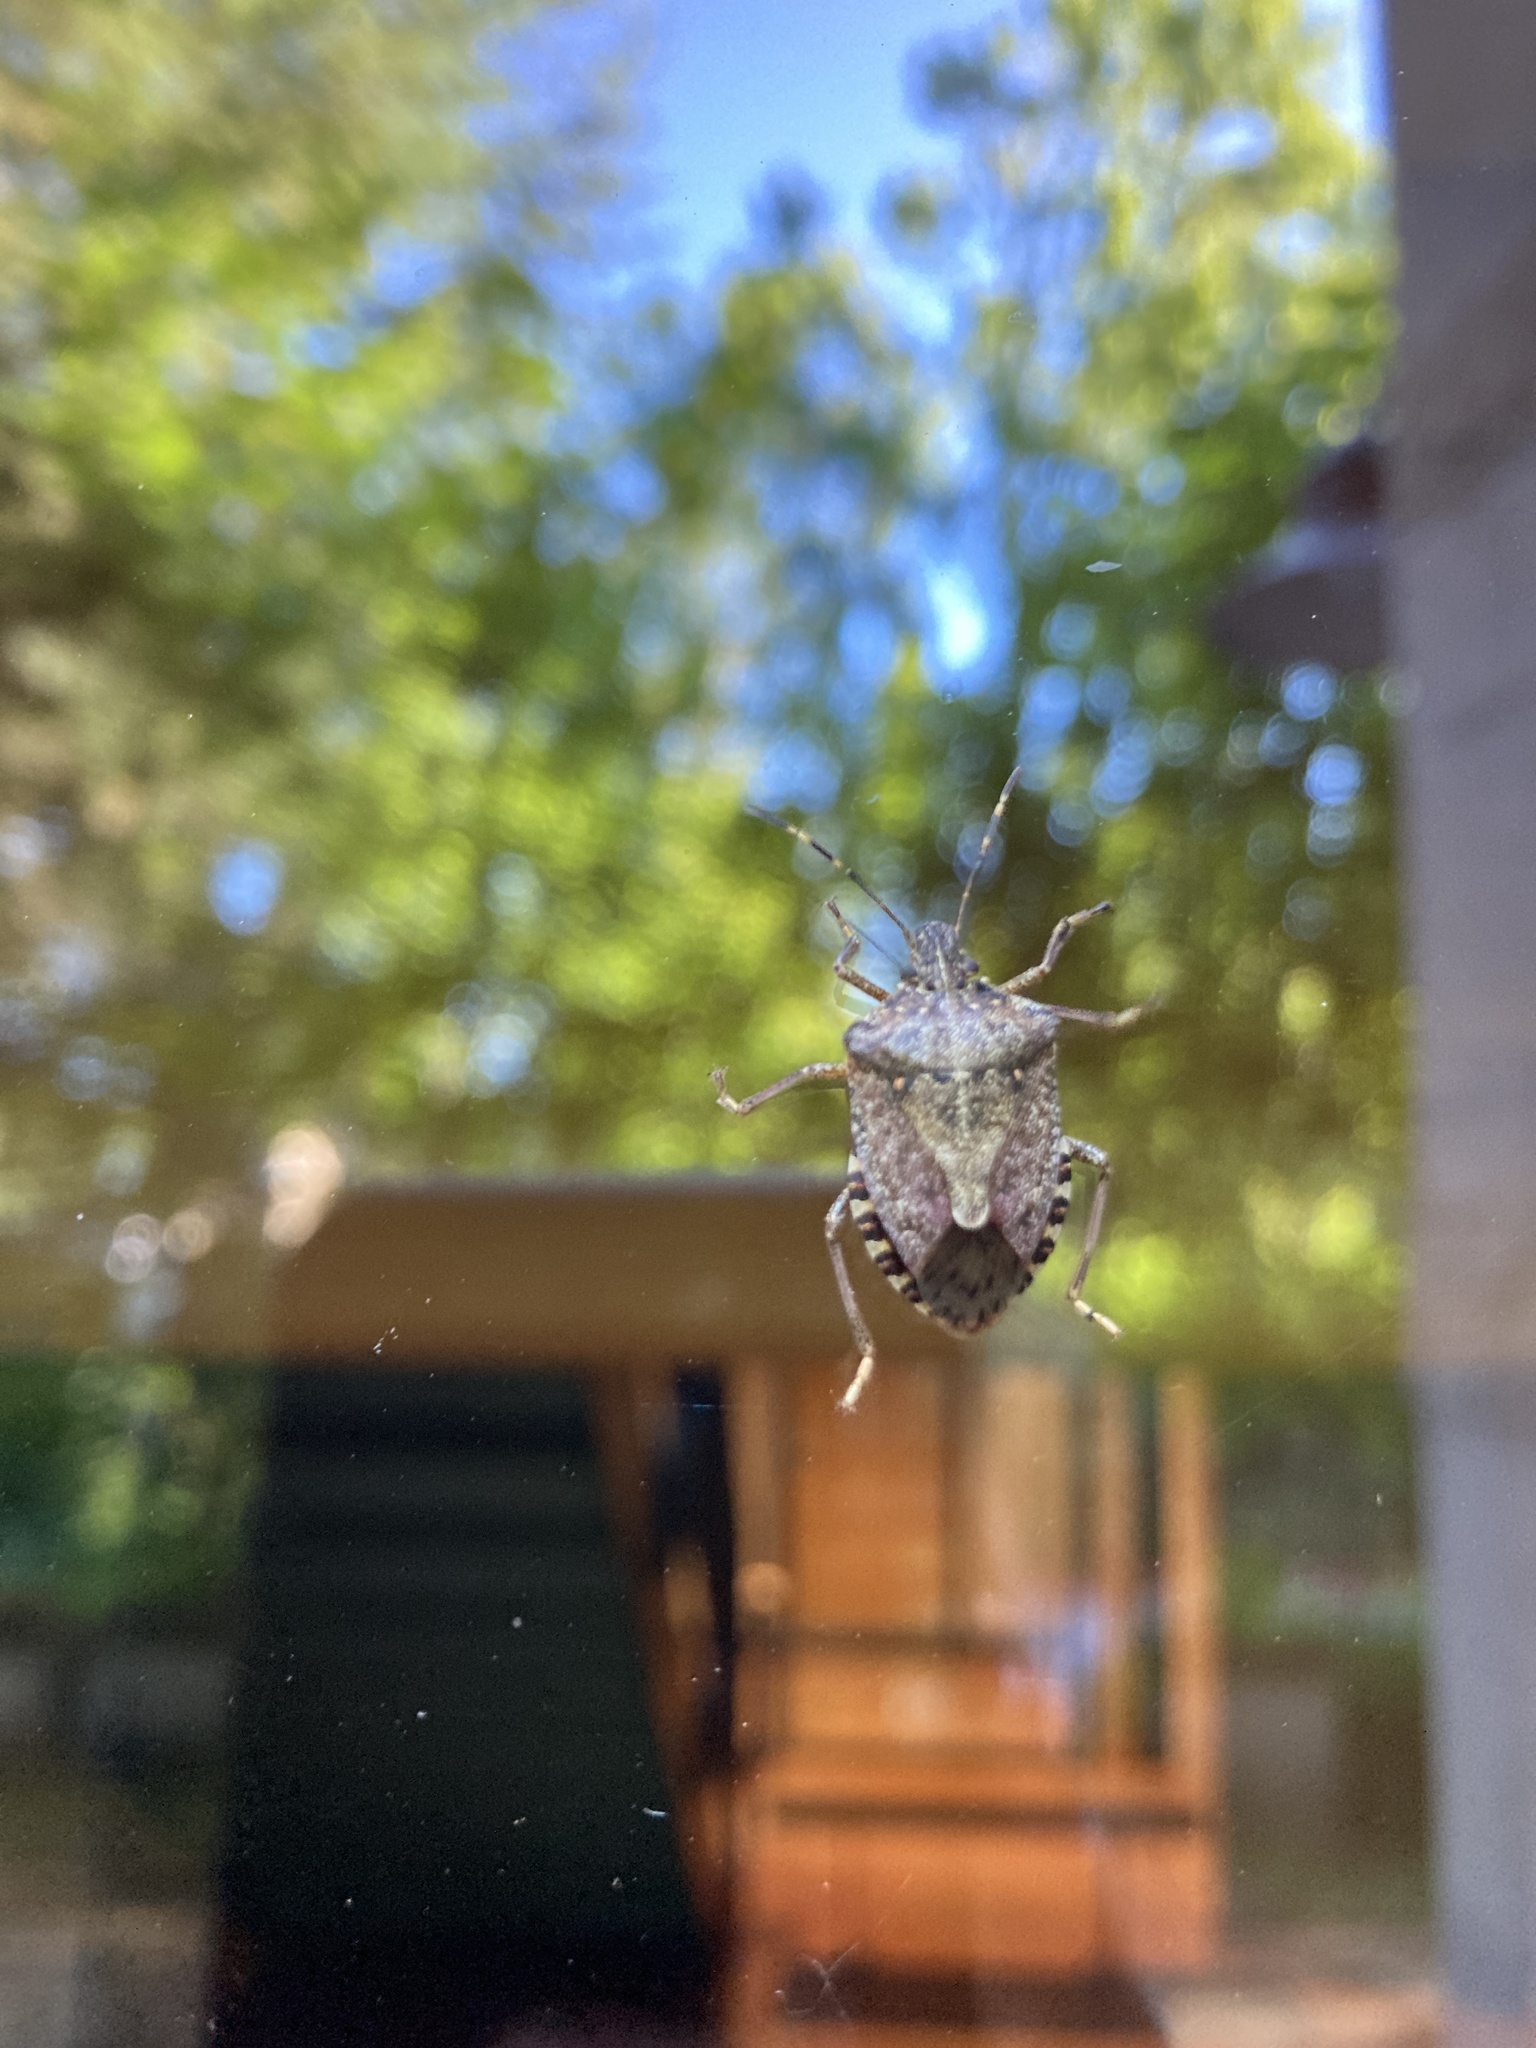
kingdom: Animalia
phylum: Arthropoda
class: Insecta
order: Hemiptera
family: Pentatomidae
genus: Halyomorpha
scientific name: Halyomorpha halys
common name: Brown marmorated stink bug
